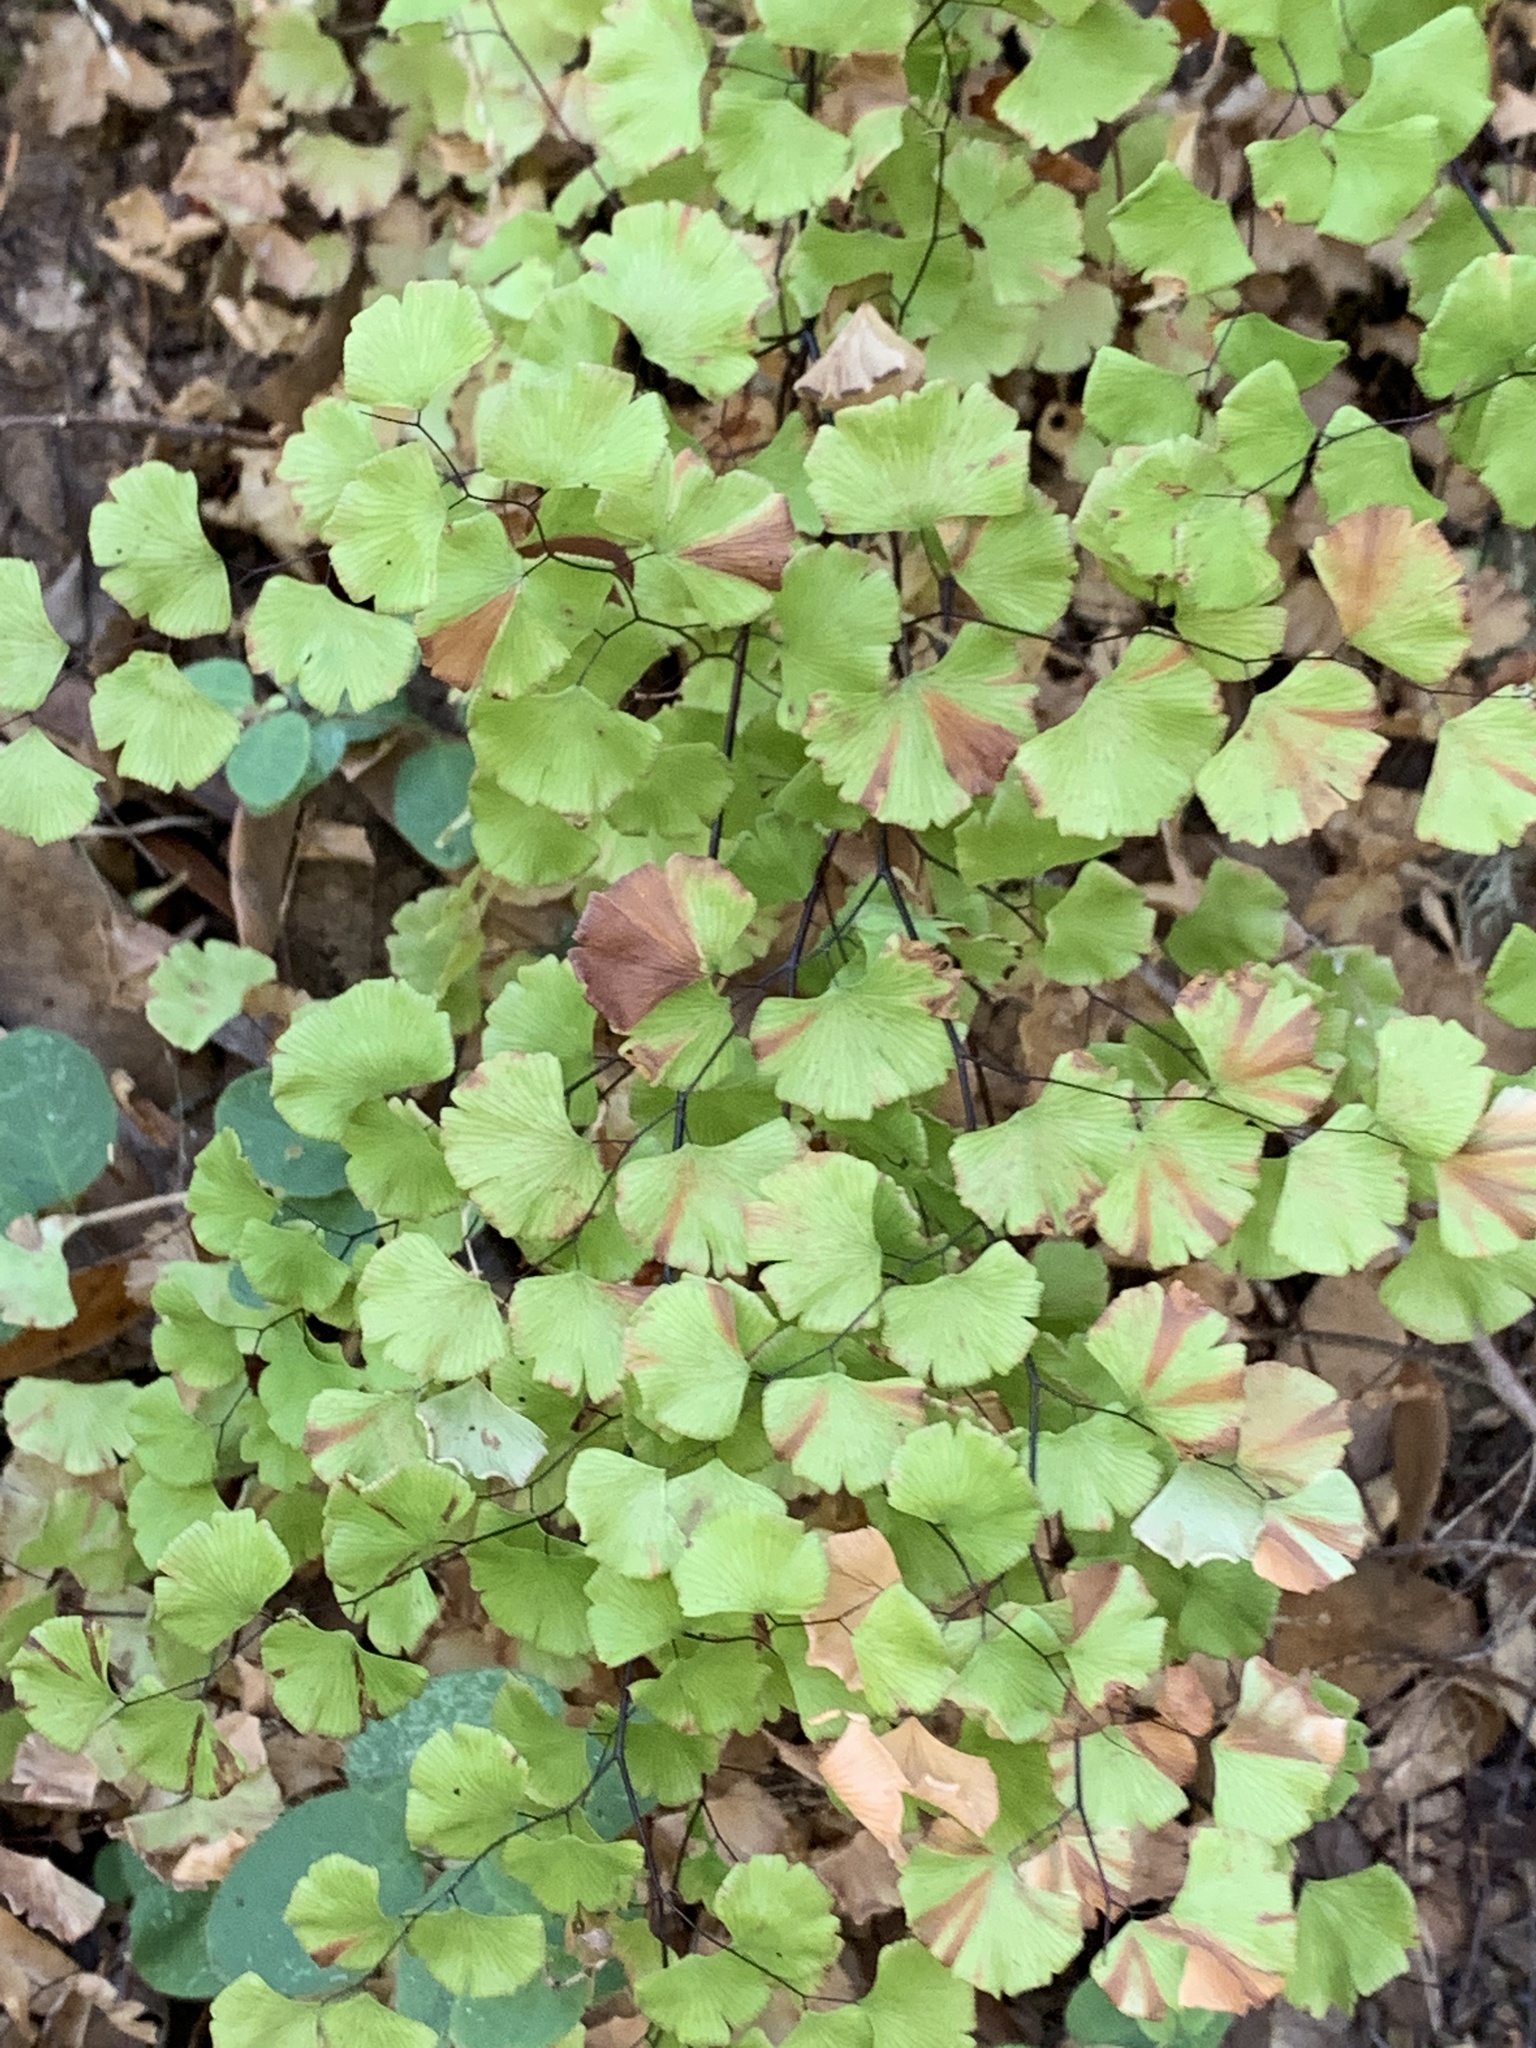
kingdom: Plantae
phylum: Tracheophyta
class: Polypodiopsida
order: Polypodiales
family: Pteridaceae
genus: Adiantum
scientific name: Adiantum jordanii
